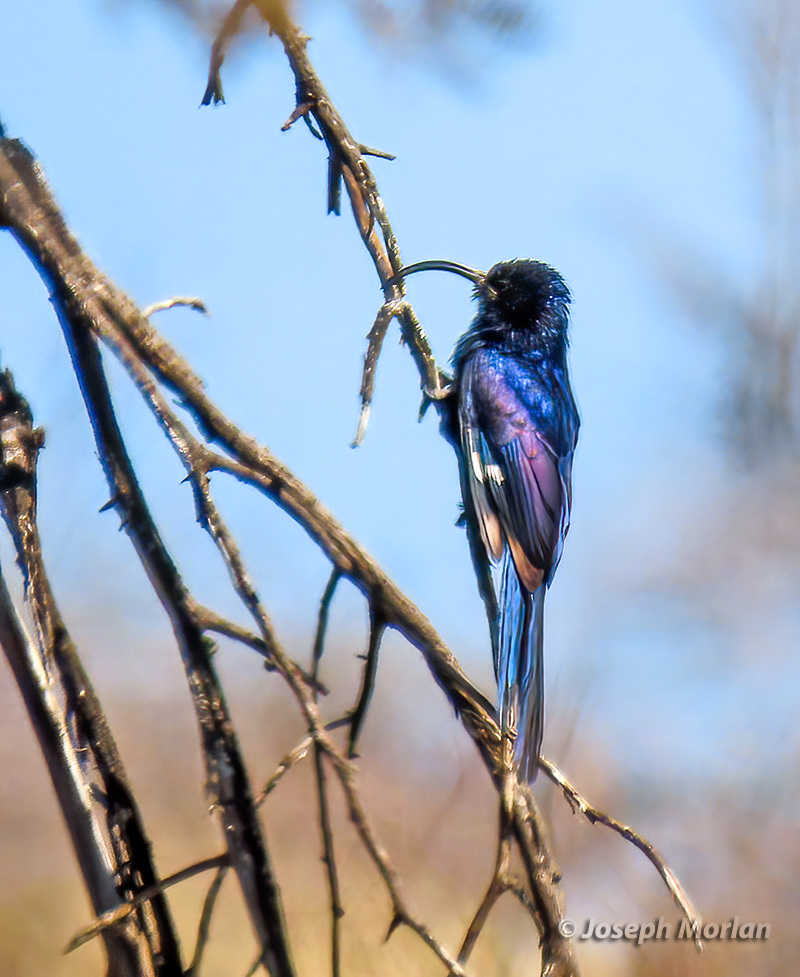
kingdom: Animalia
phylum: Chordata
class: Aves
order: Bucerotiformes
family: Phoeniculidae
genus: Rhinopomastus
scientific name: Rhinopomastus cyanomelas
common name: Common scimitarbill
